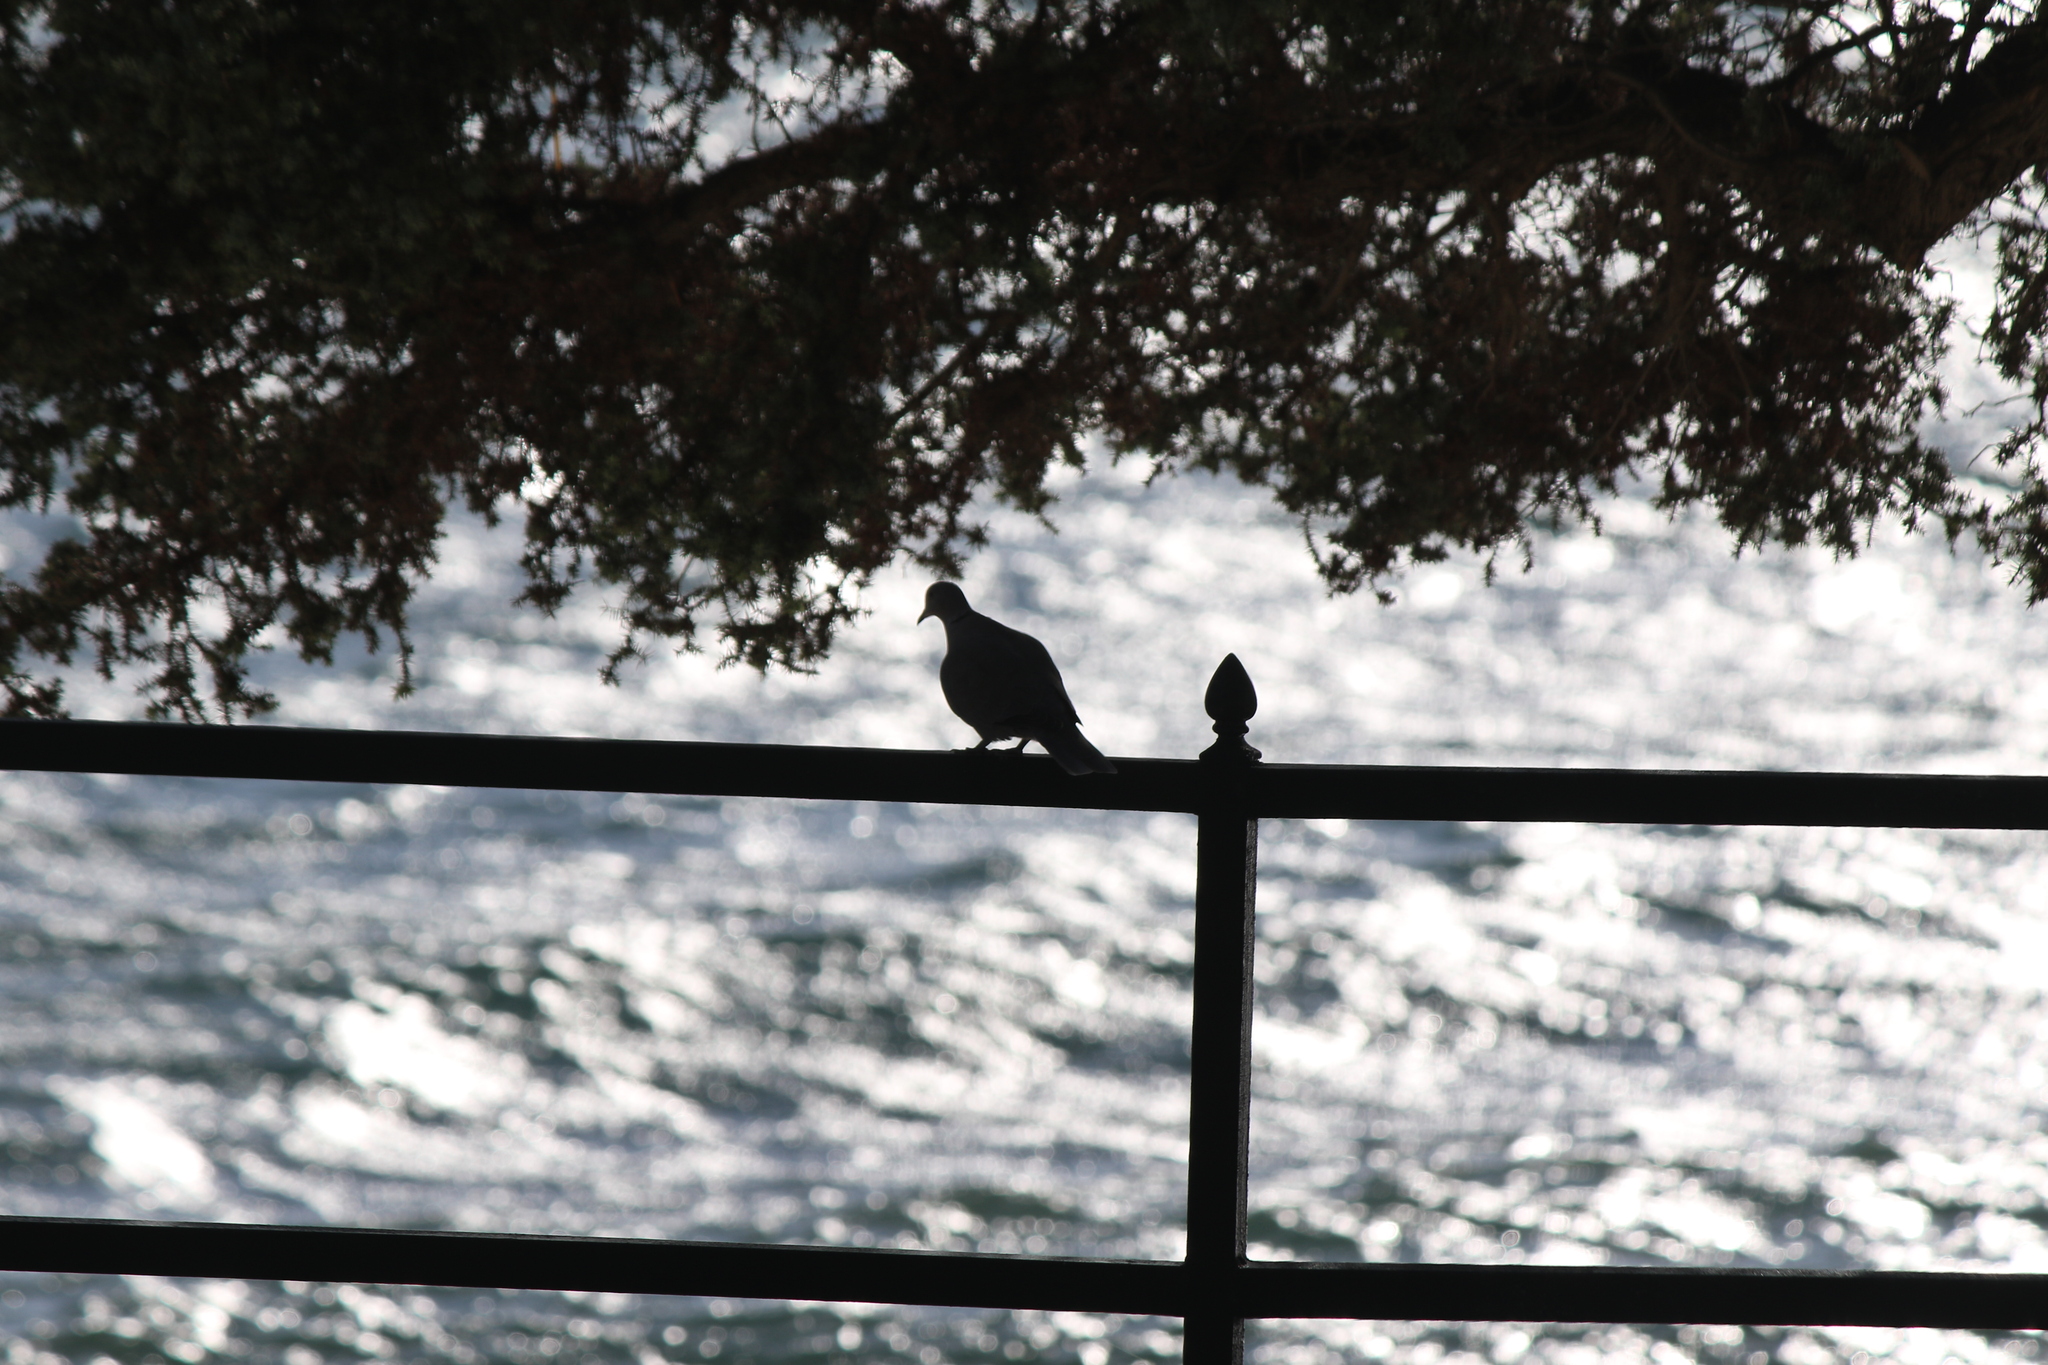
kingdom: Animalia
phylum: Chordata
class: Aves
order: Columbiformes
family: Columbidae
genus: Streptopelia
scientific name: Streptopelia decaocto
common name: Eurasian collared dove
